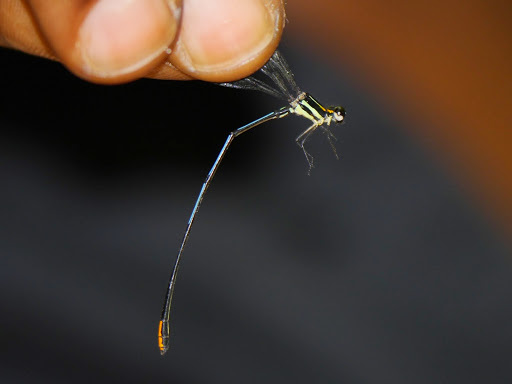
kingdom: Animalia
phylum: Arthropoda
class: Insecta
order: Odonata
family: Platycnemididae
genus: Allocnemis
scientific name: Allocnemis nigripes
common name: Rainbow yellowwing
